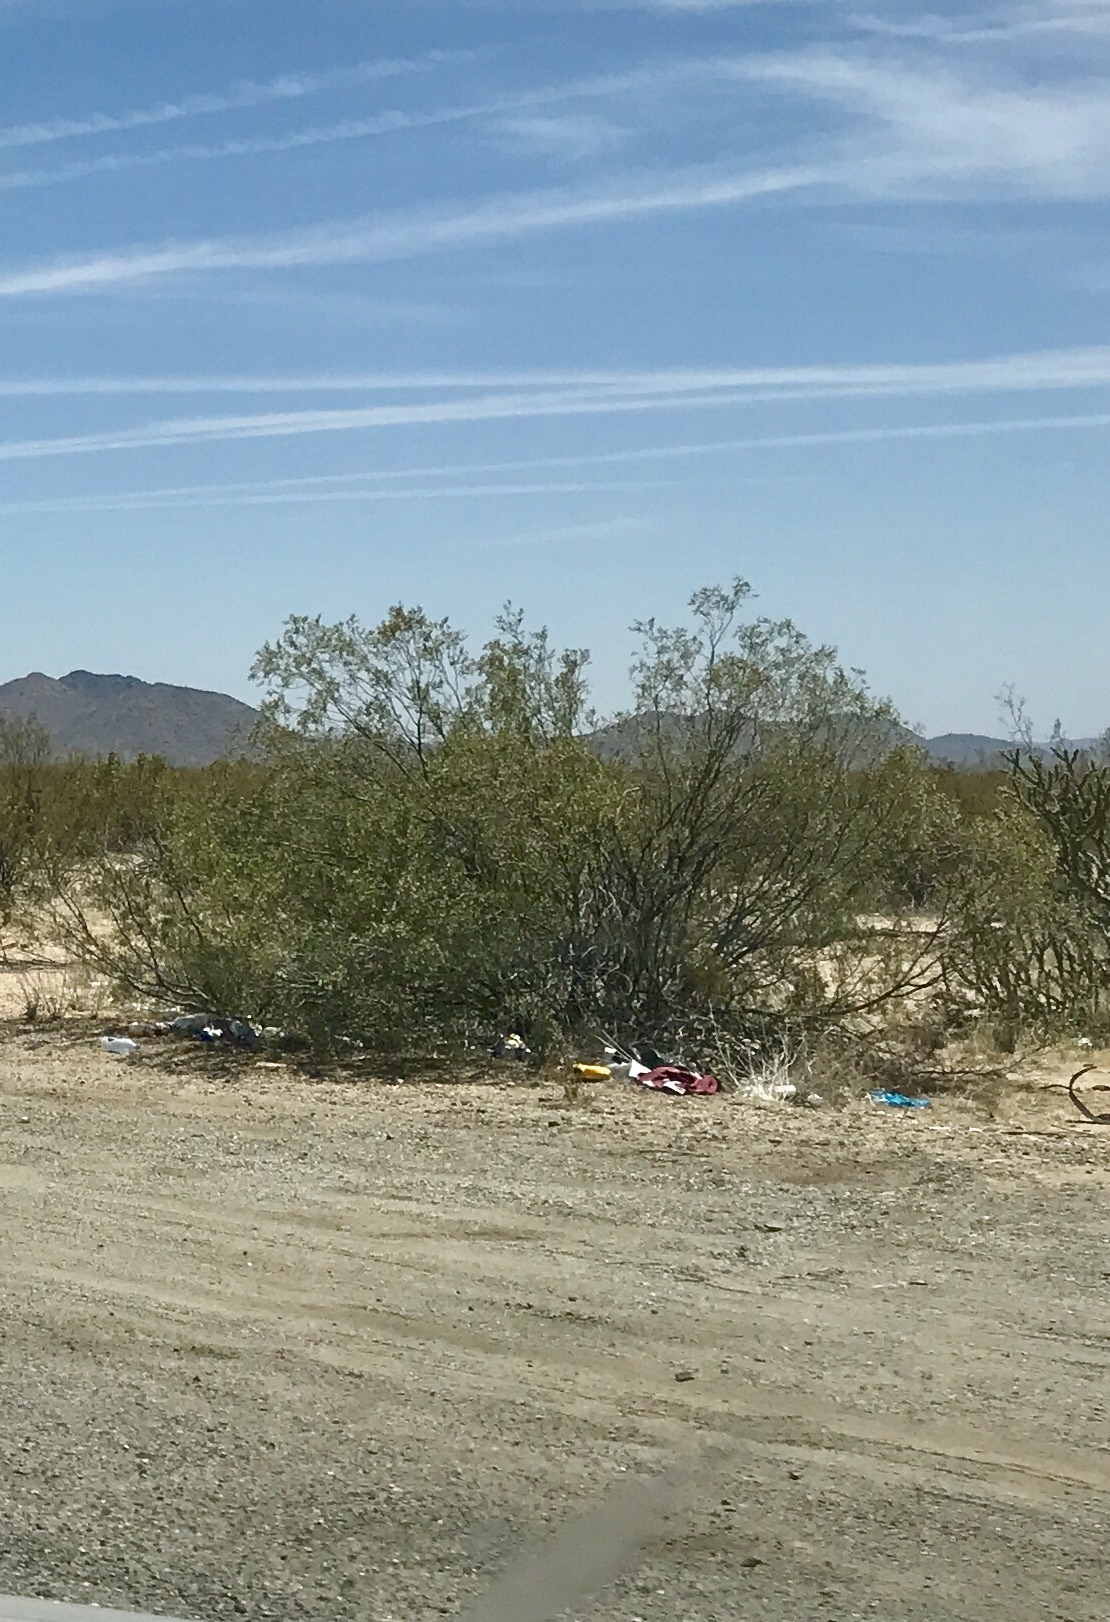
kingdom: Plantae
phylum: Tracheophyta
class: Magnoliopsida
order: Zygophyllales
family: Zygophyllaceae
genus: Larrea
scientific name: Larrea tridentata
